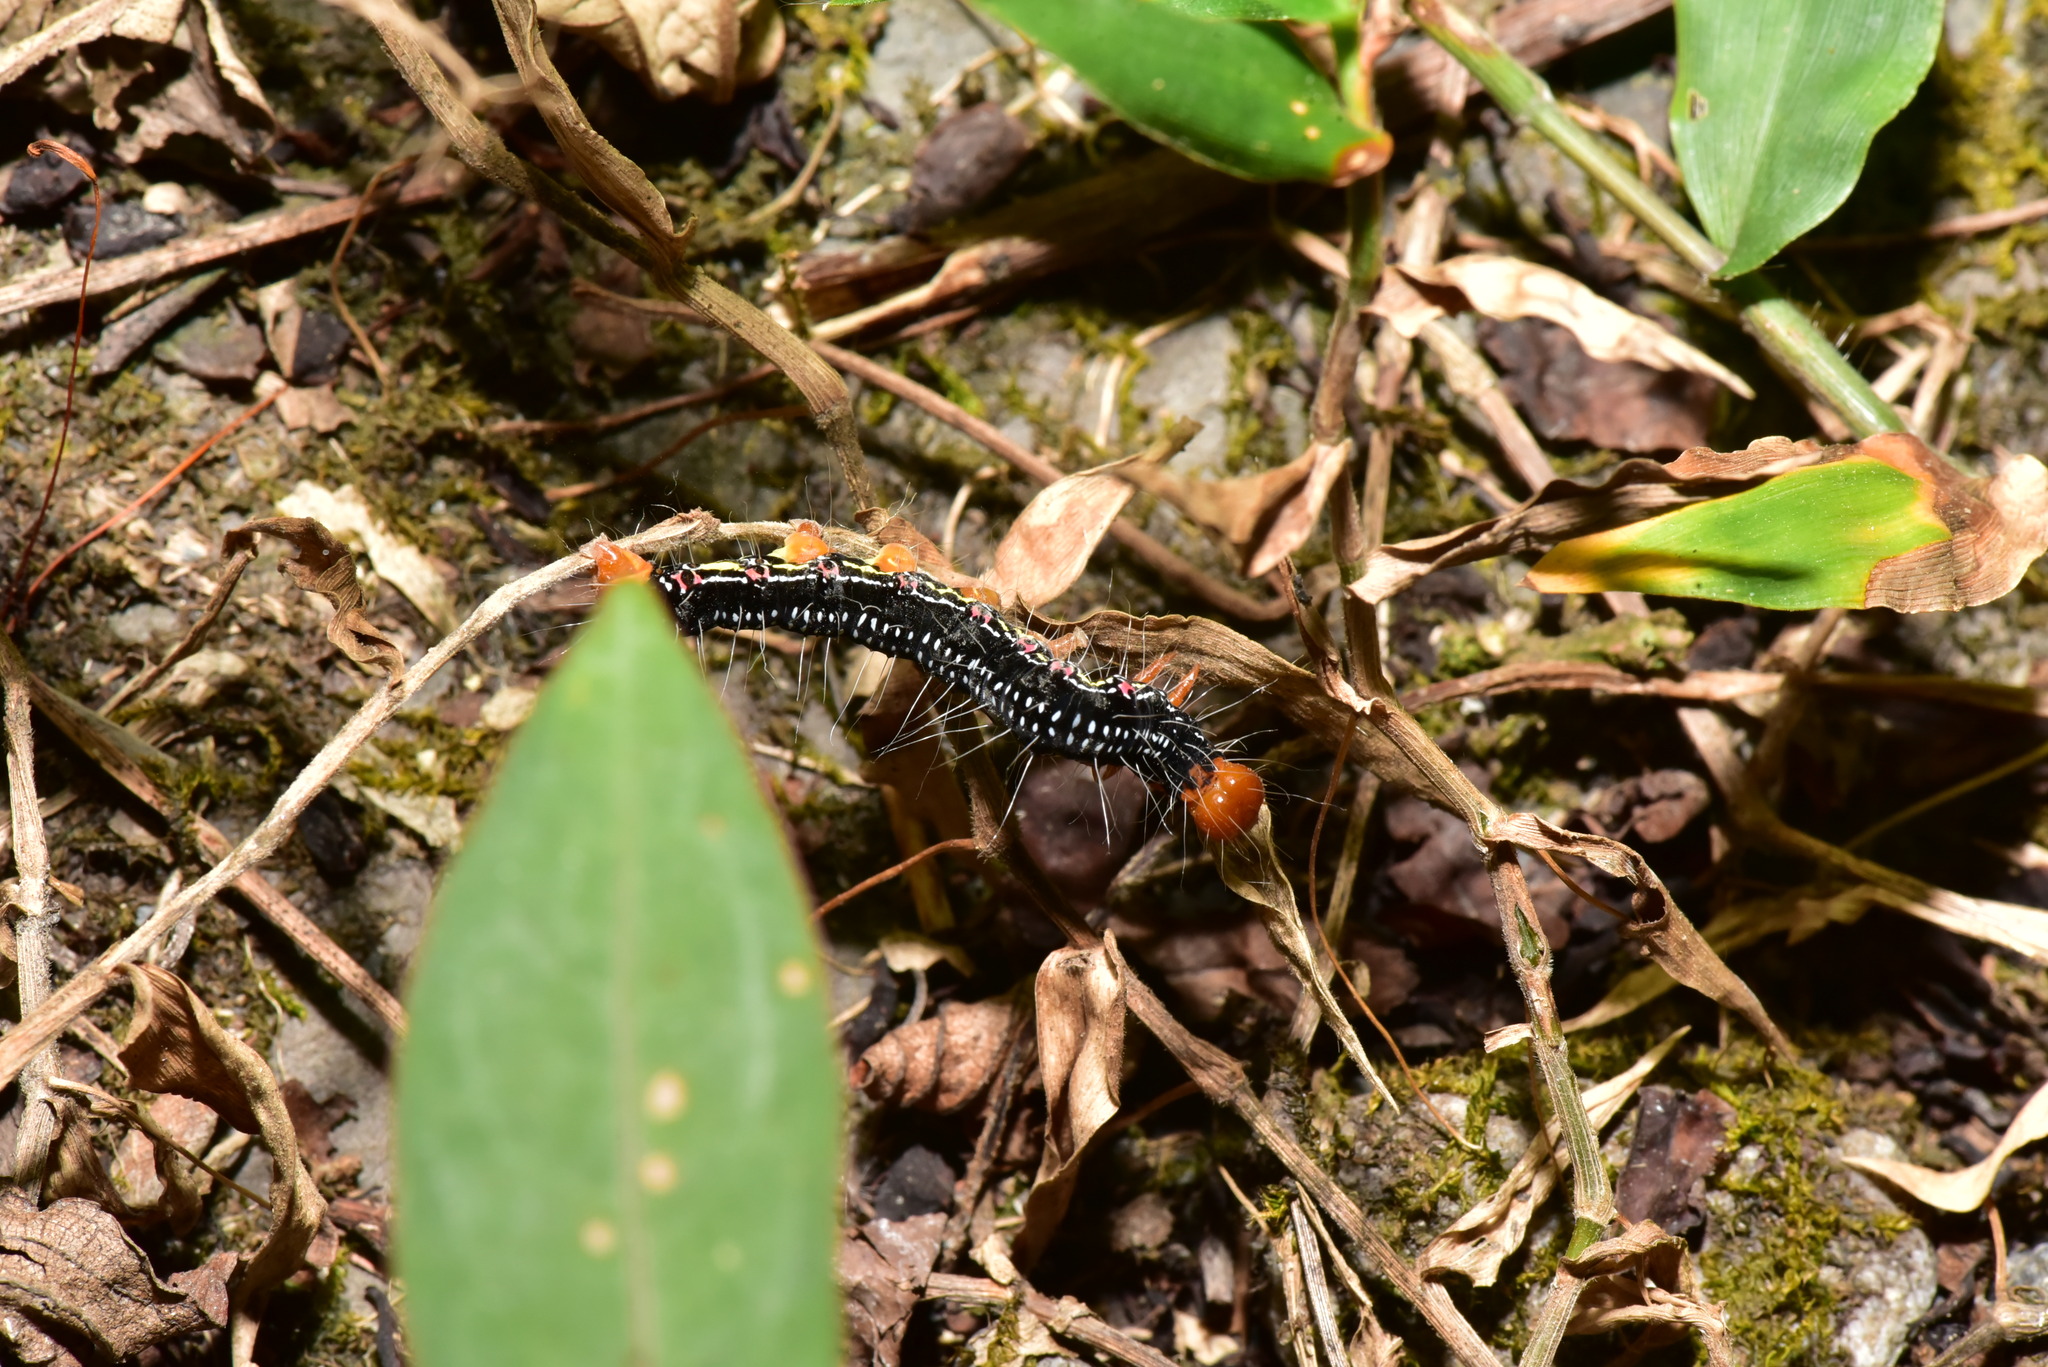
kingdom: Animalia
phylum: Arthropoda
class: Insecta
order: Lepidoptera
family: Erebidae
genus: Arcte
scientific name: Arcte coerula
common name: Ramie moth
